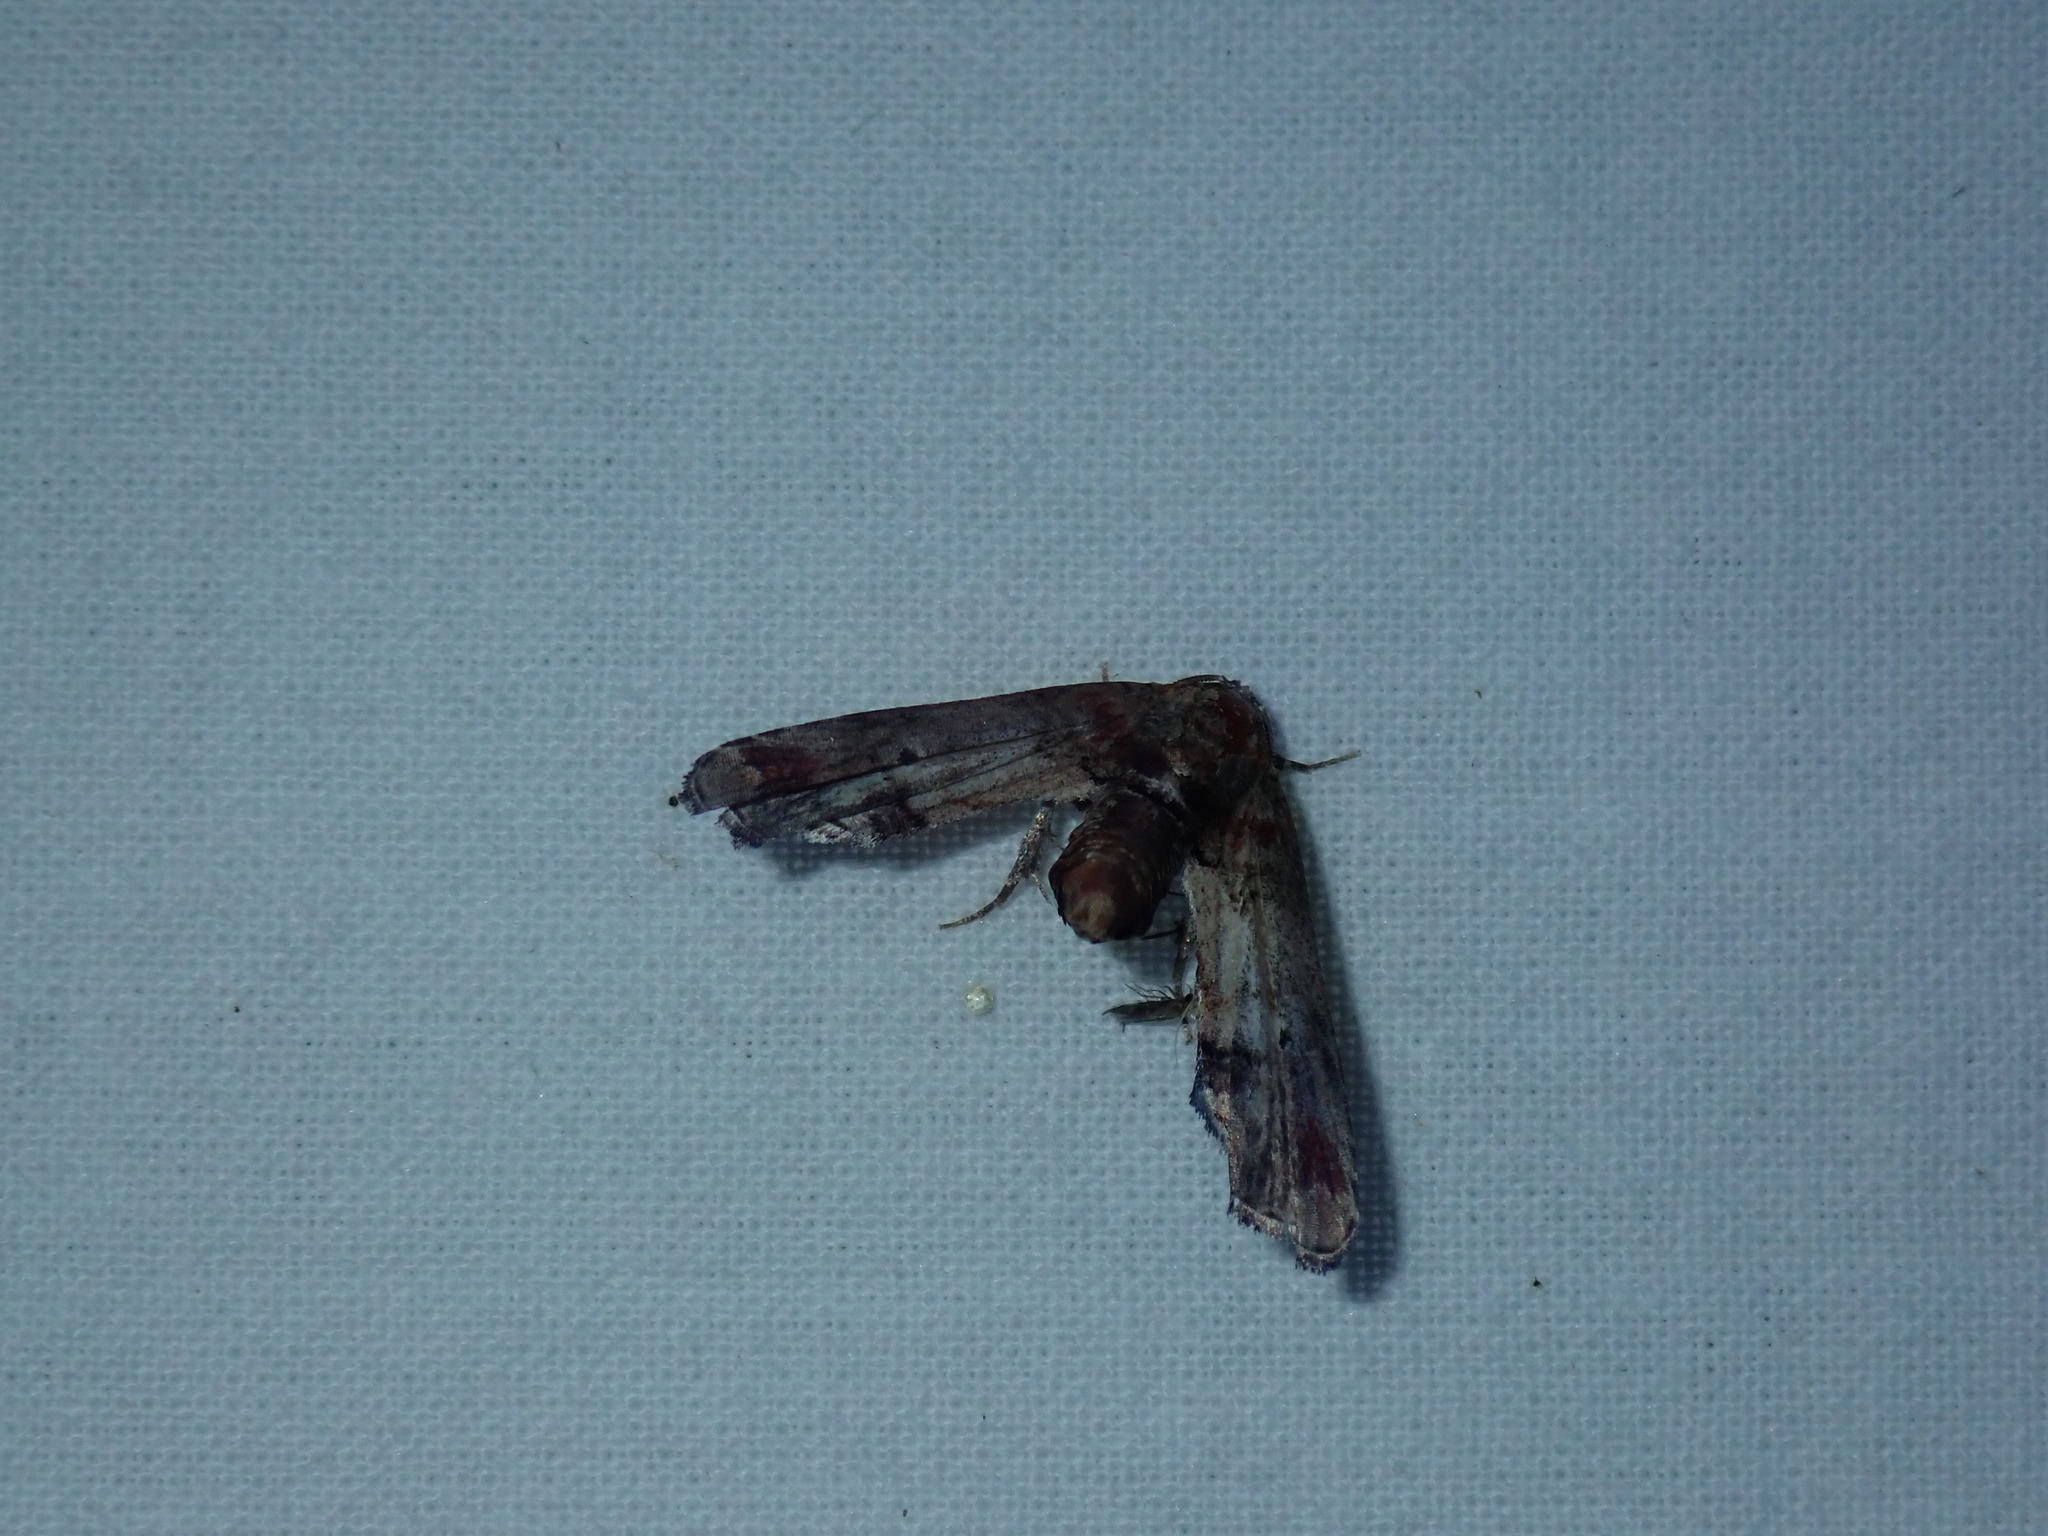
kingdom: Animalia
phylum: Arthropoda
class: Insecta
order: Lepidoptera
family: Euteliidae
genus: Marathyssa
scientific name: Marathyssa inficita
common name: Dark marathyssa moth
